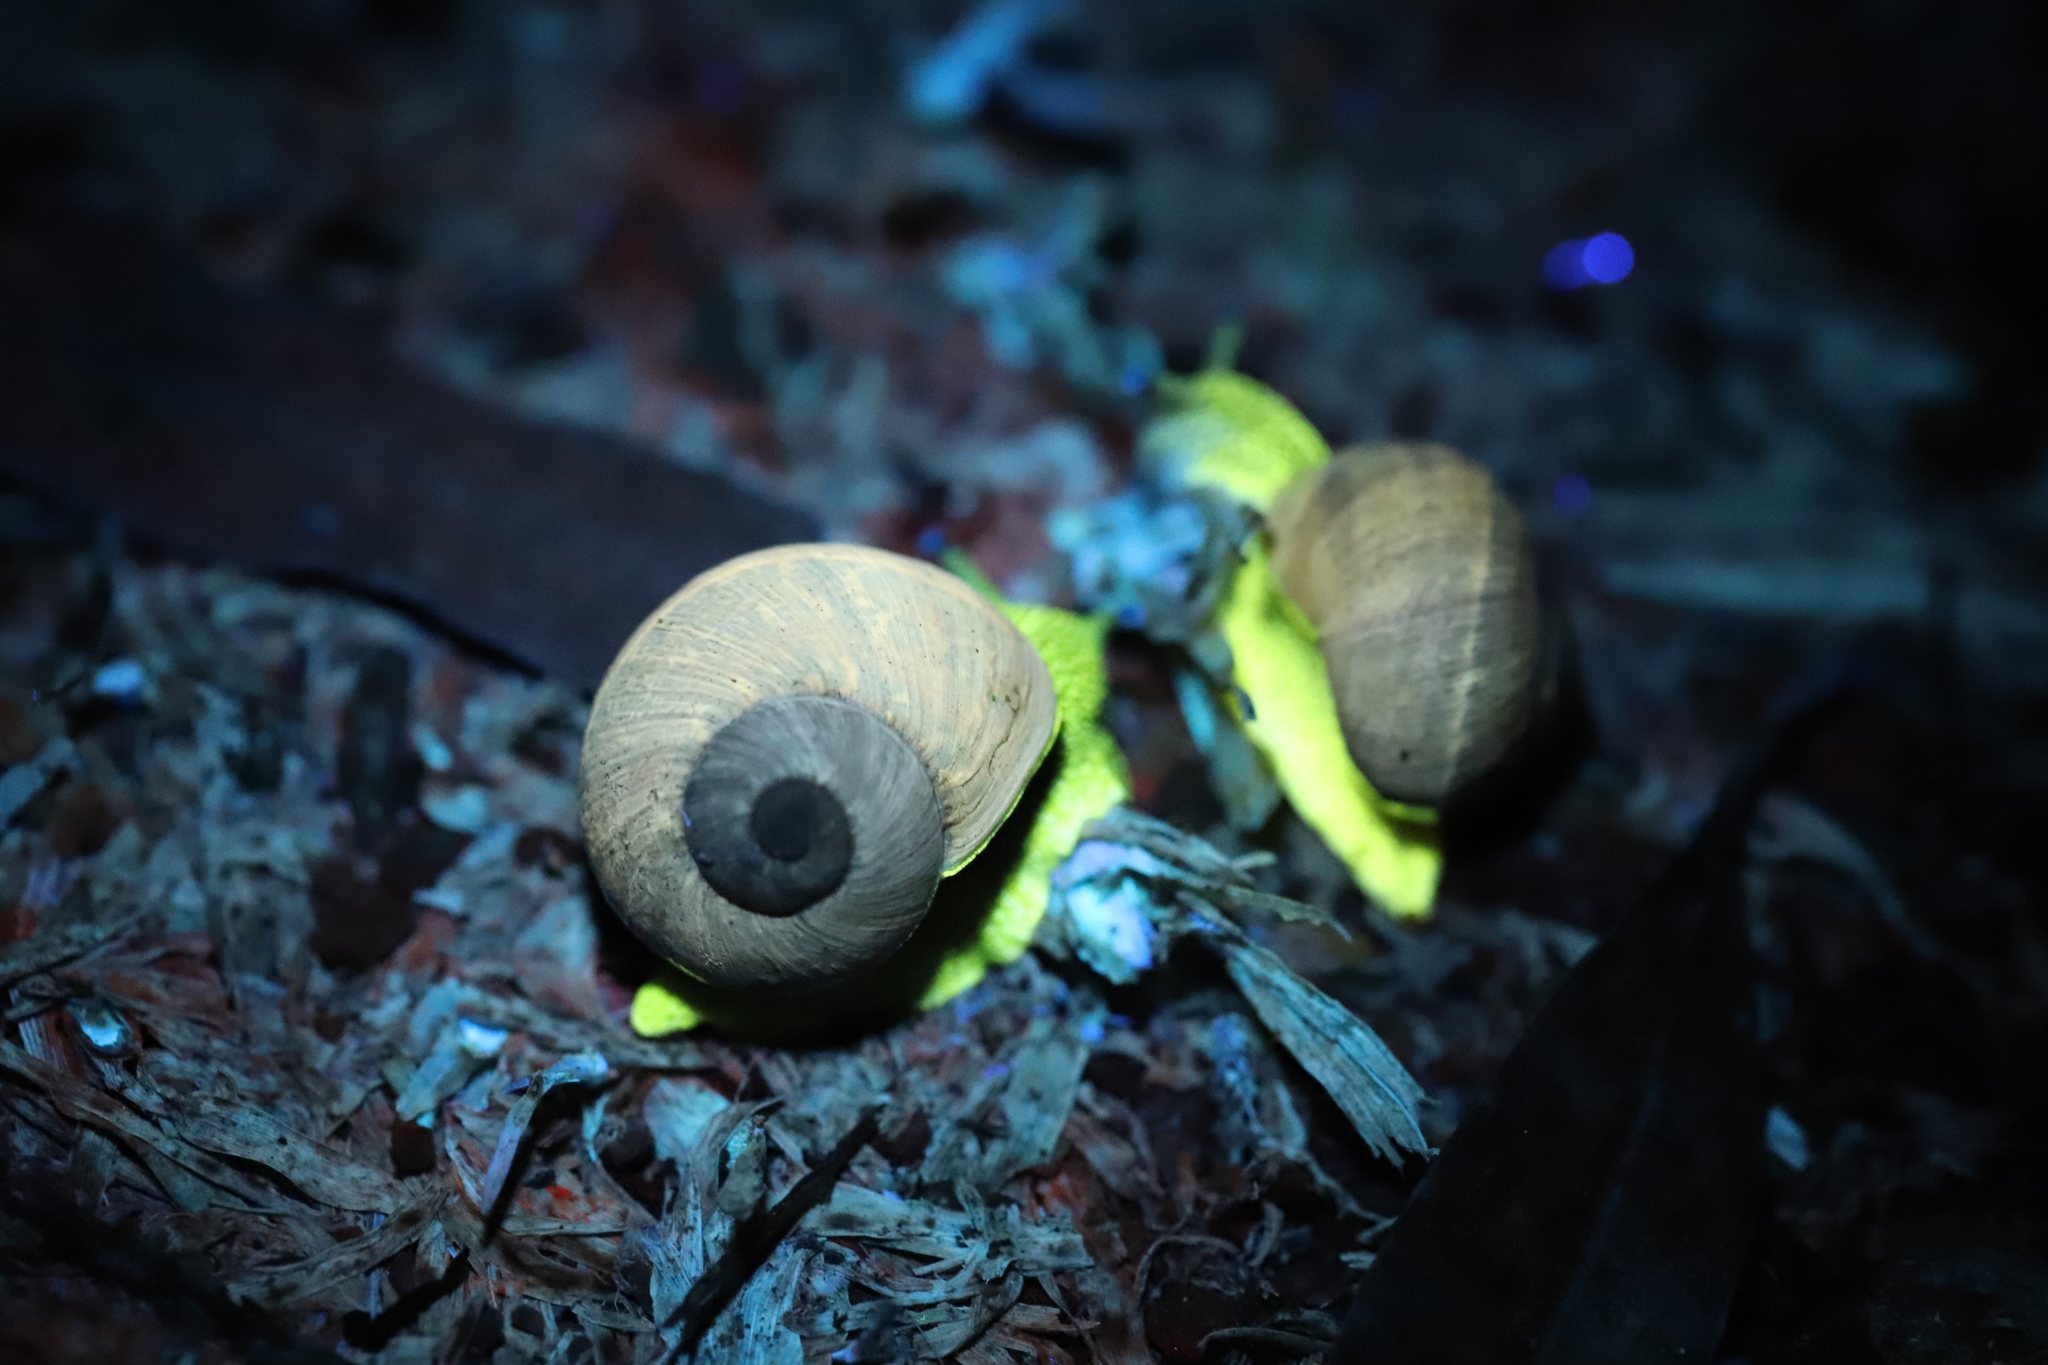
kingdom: Animalia
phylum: Mollusca
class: Gastropoda
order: Stylommatophora
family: Helicidae
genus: Cornu
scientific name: Cornu aspersum
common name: Brown garden snail
